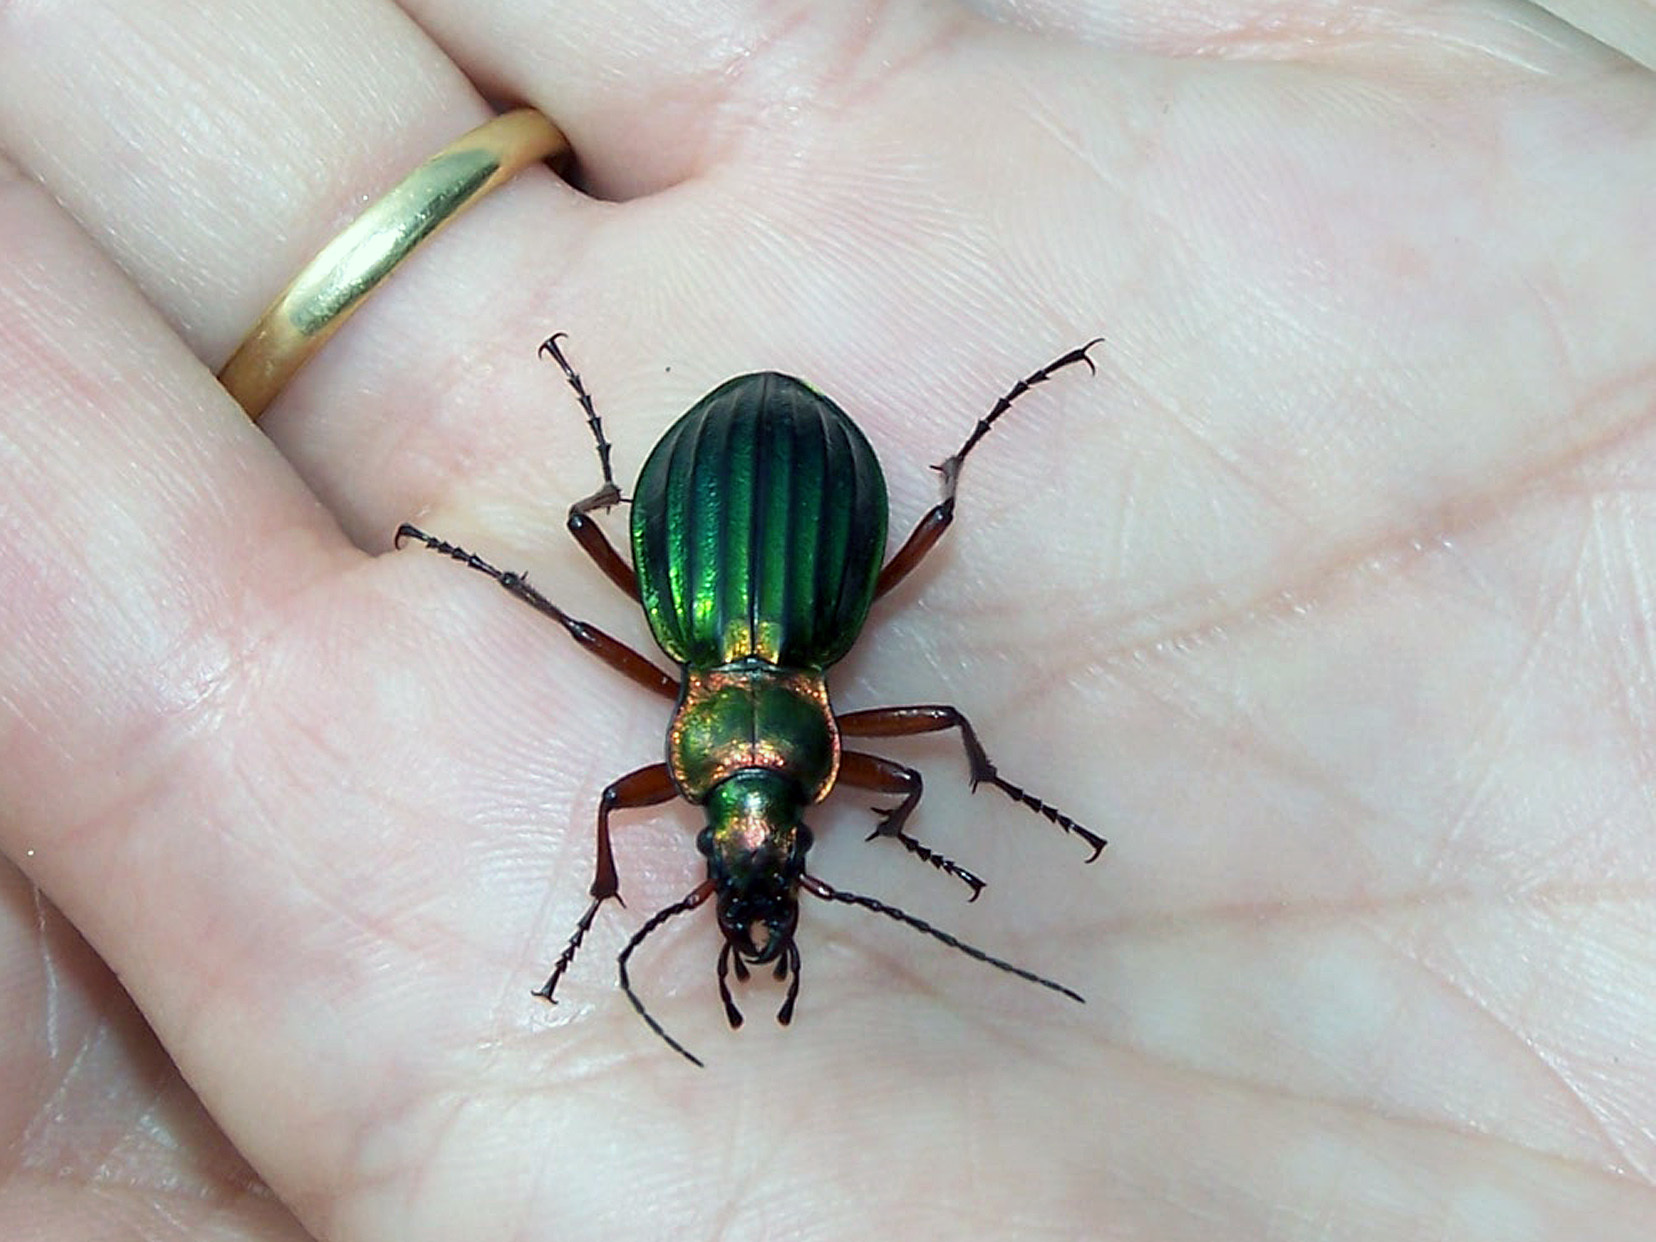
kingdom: Animalia
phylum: Arthropoda
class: Insecta
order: Coleoptera
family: Carabidae
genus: Carabus
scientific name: Carabus auronitens
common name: Carabus auronitens
